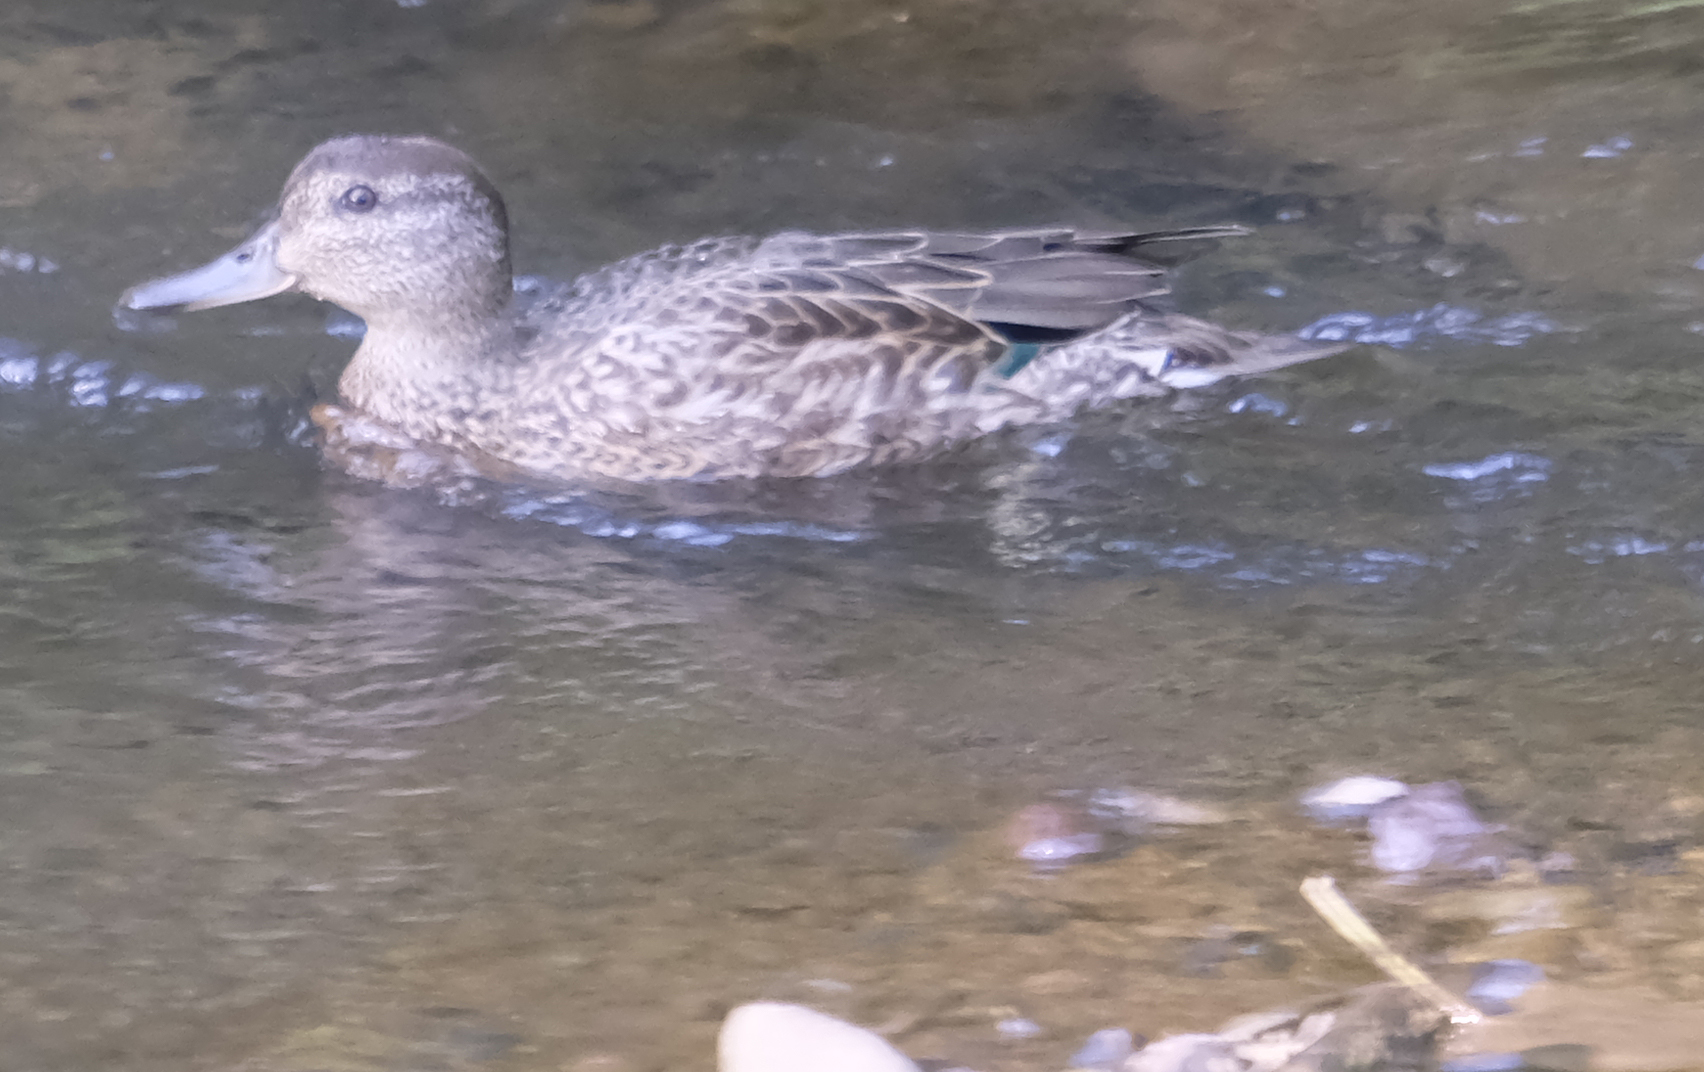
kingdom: Animalia
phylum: Chordata
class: Aves
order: Anseriformes
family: Anatidae
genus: Anas
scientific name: Anas crecca
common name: Eurasian teal
